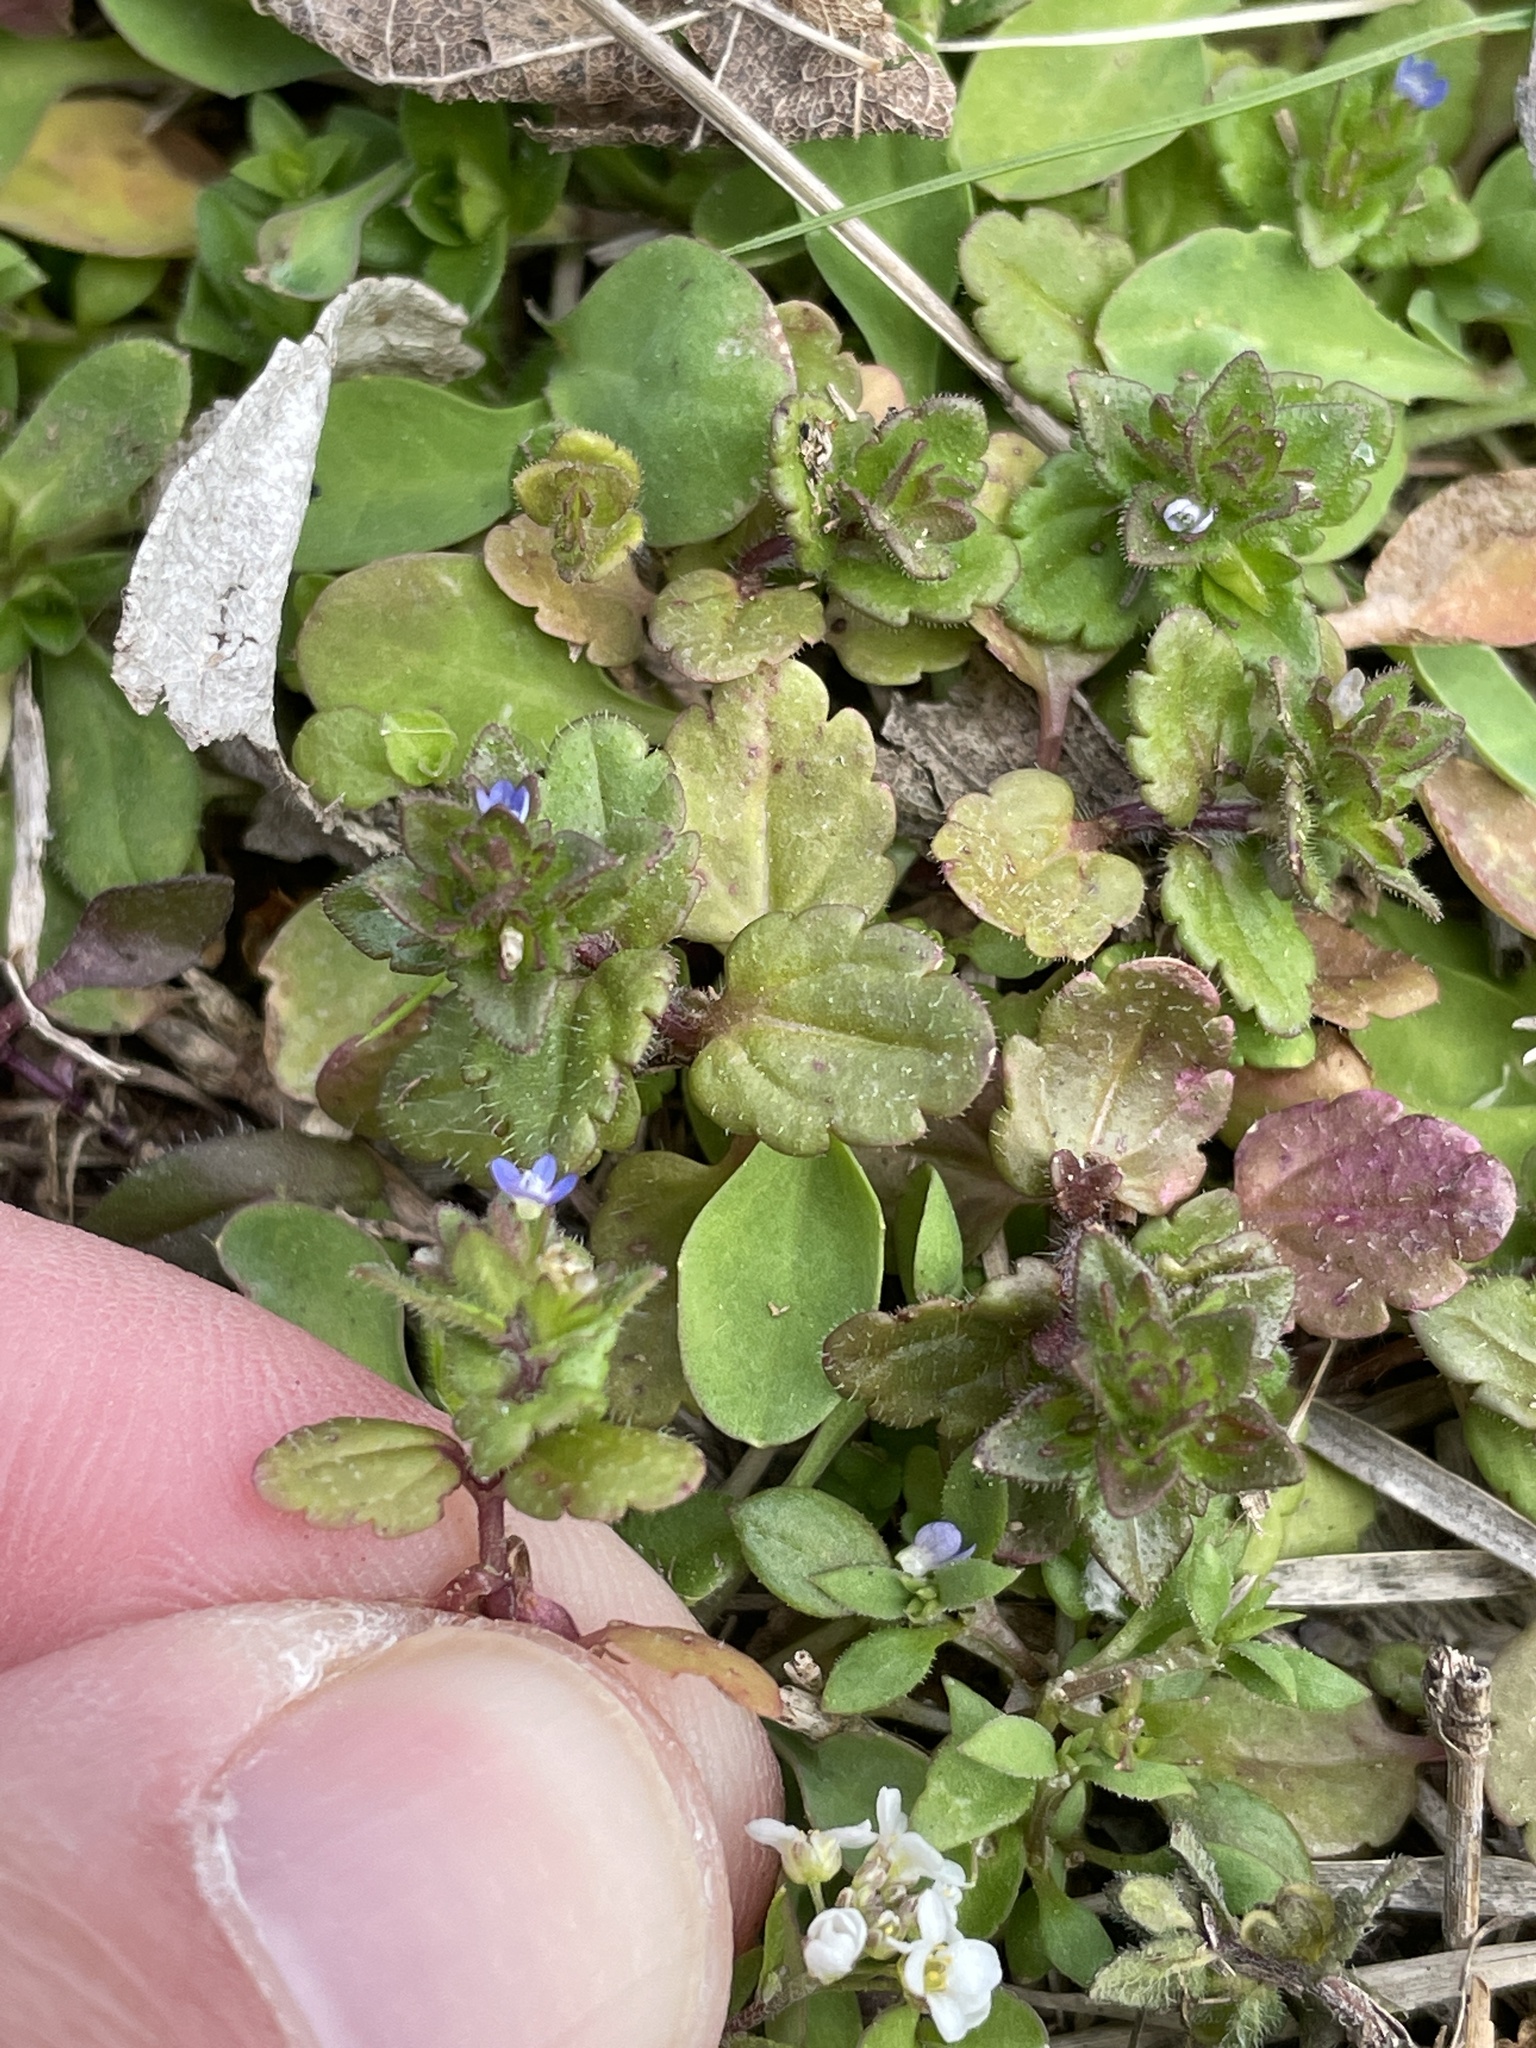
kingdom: Plantae
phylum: Tracheophyta
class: Magnoliopsida
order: Lamiales
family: Plantaginaceae
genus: Veronica
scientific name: Veronica arvensis
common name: Corn speedwell
